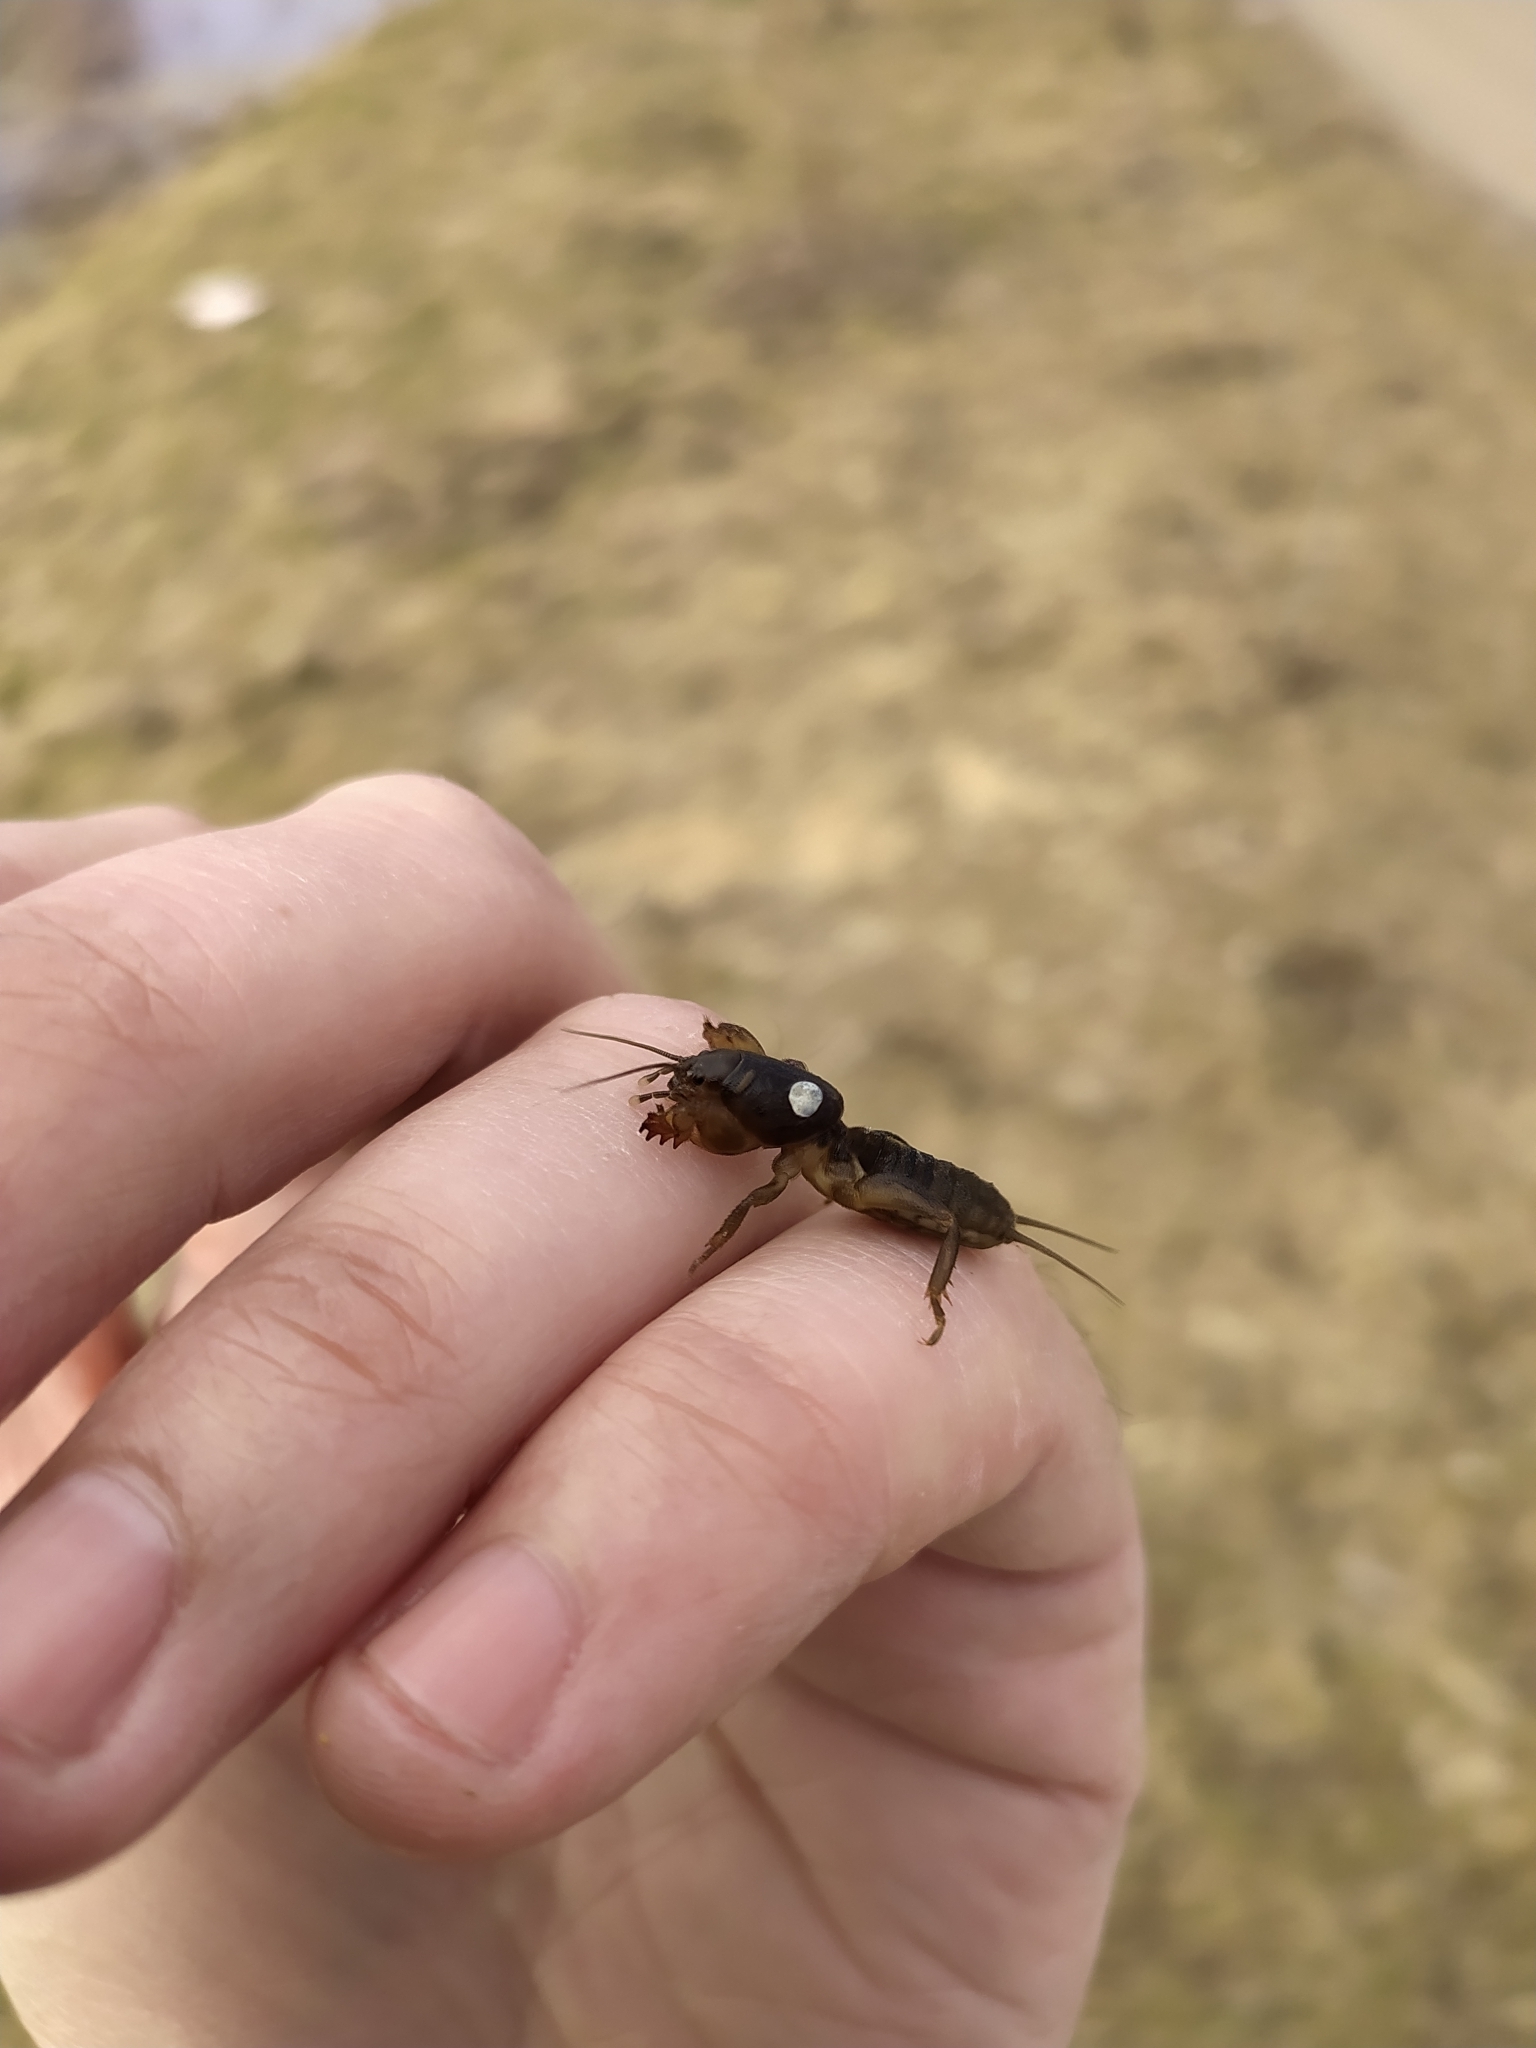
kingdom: Animalia
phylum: Arthropoda
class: Insecta
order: Orthoptera
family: Gryllotalpidae
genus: Gryllotalpa
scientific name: Gryllotalpa gryllotalpa
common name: European mole cricket
